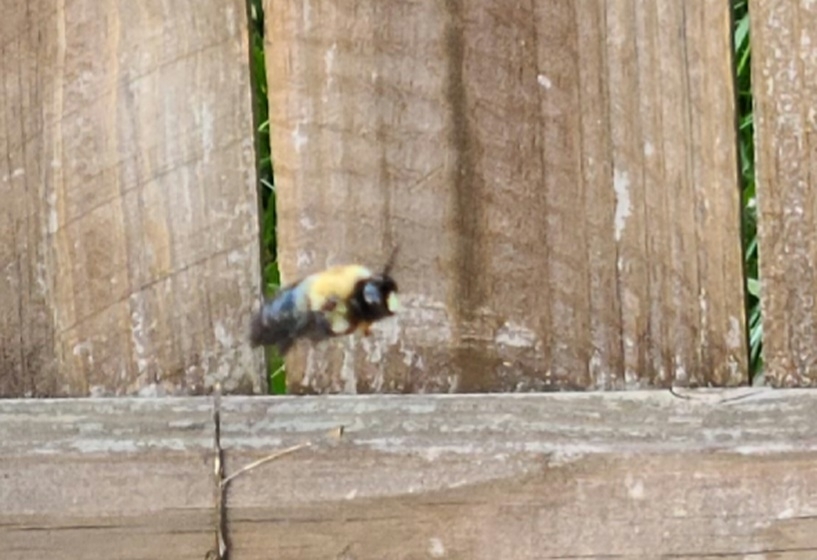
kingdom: Animalia
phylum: Arthropoda
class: Insecta
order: Hymenoptera
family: Apidae
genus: Xylocopa
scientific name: Xylocopa virginica
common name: Carpenter bee
